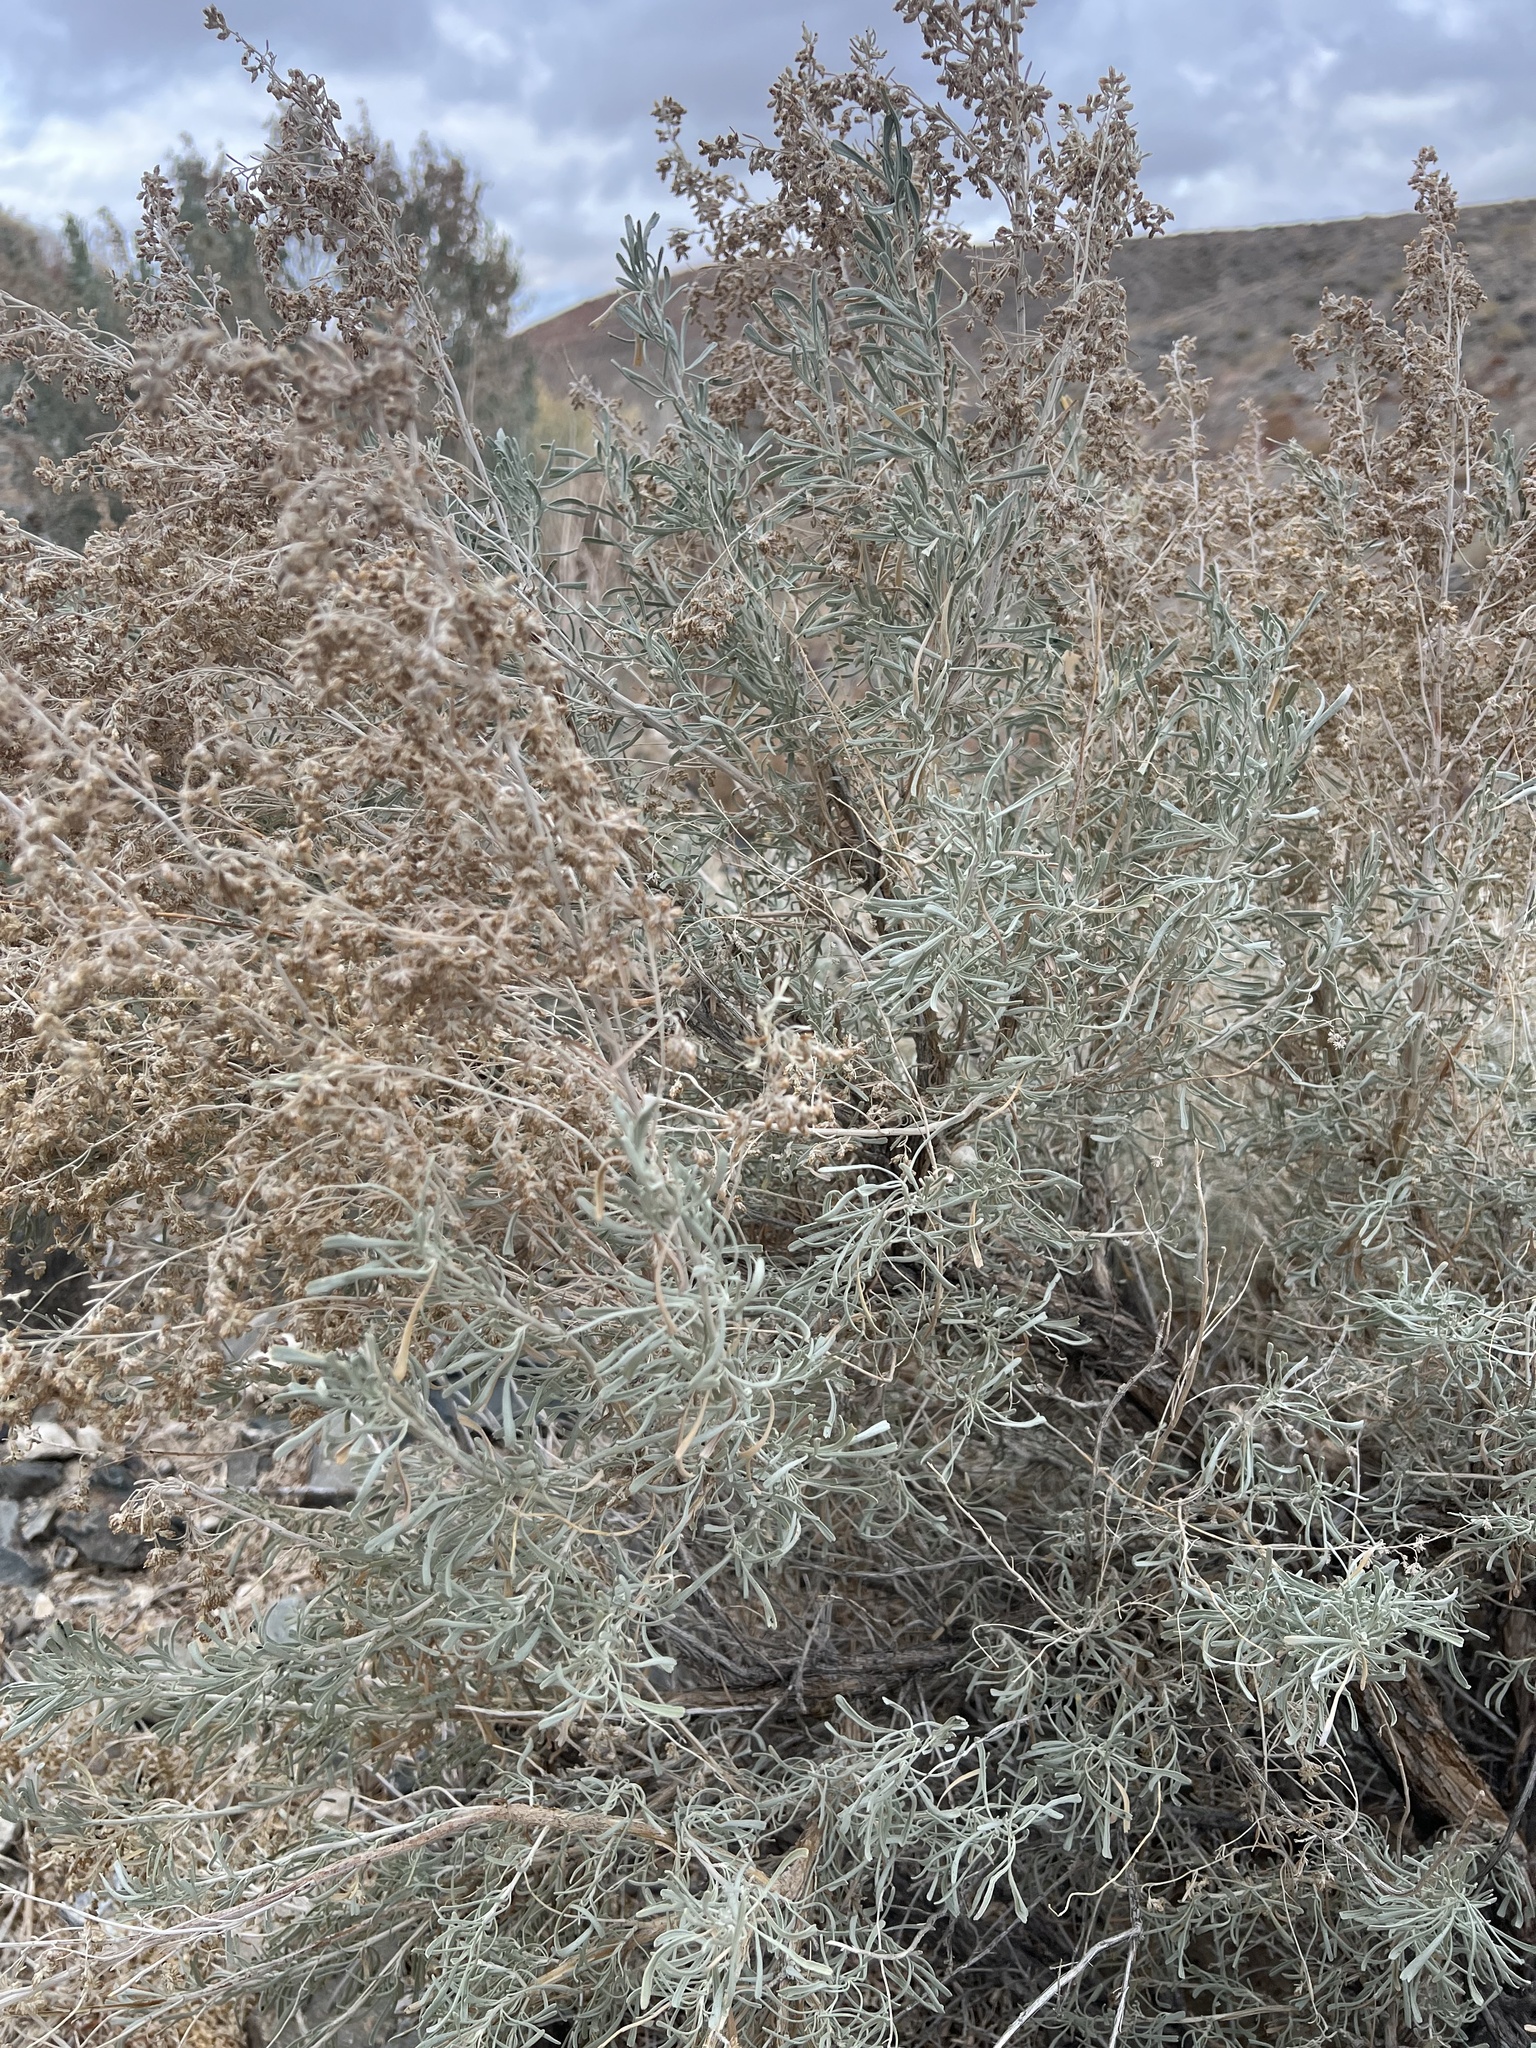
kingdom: Plantae
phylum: Tracheophyta
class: Magnoliopsida
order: Asterales
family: Asteraceae
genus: Artemisia
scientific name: Artemisia tridentata
